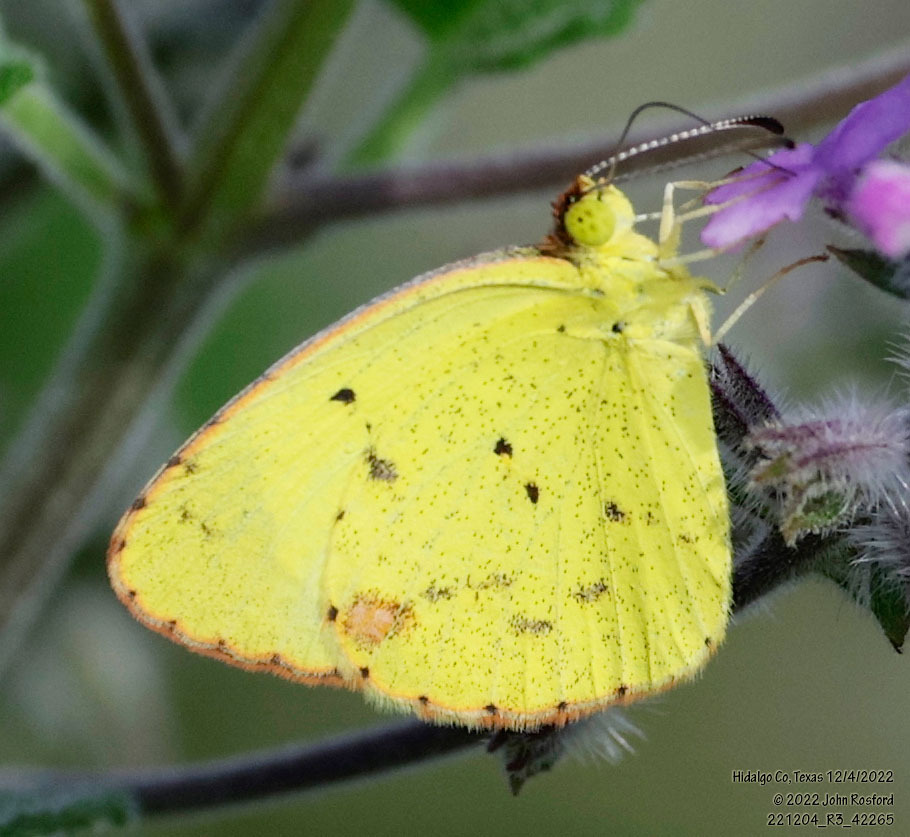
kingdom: Animalia
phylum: Arthropoda
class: Insecta
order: Lepidoptera
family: Pieridae
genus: Pyrisitia
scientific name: Pyrisitia lisa
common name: Little yellow
